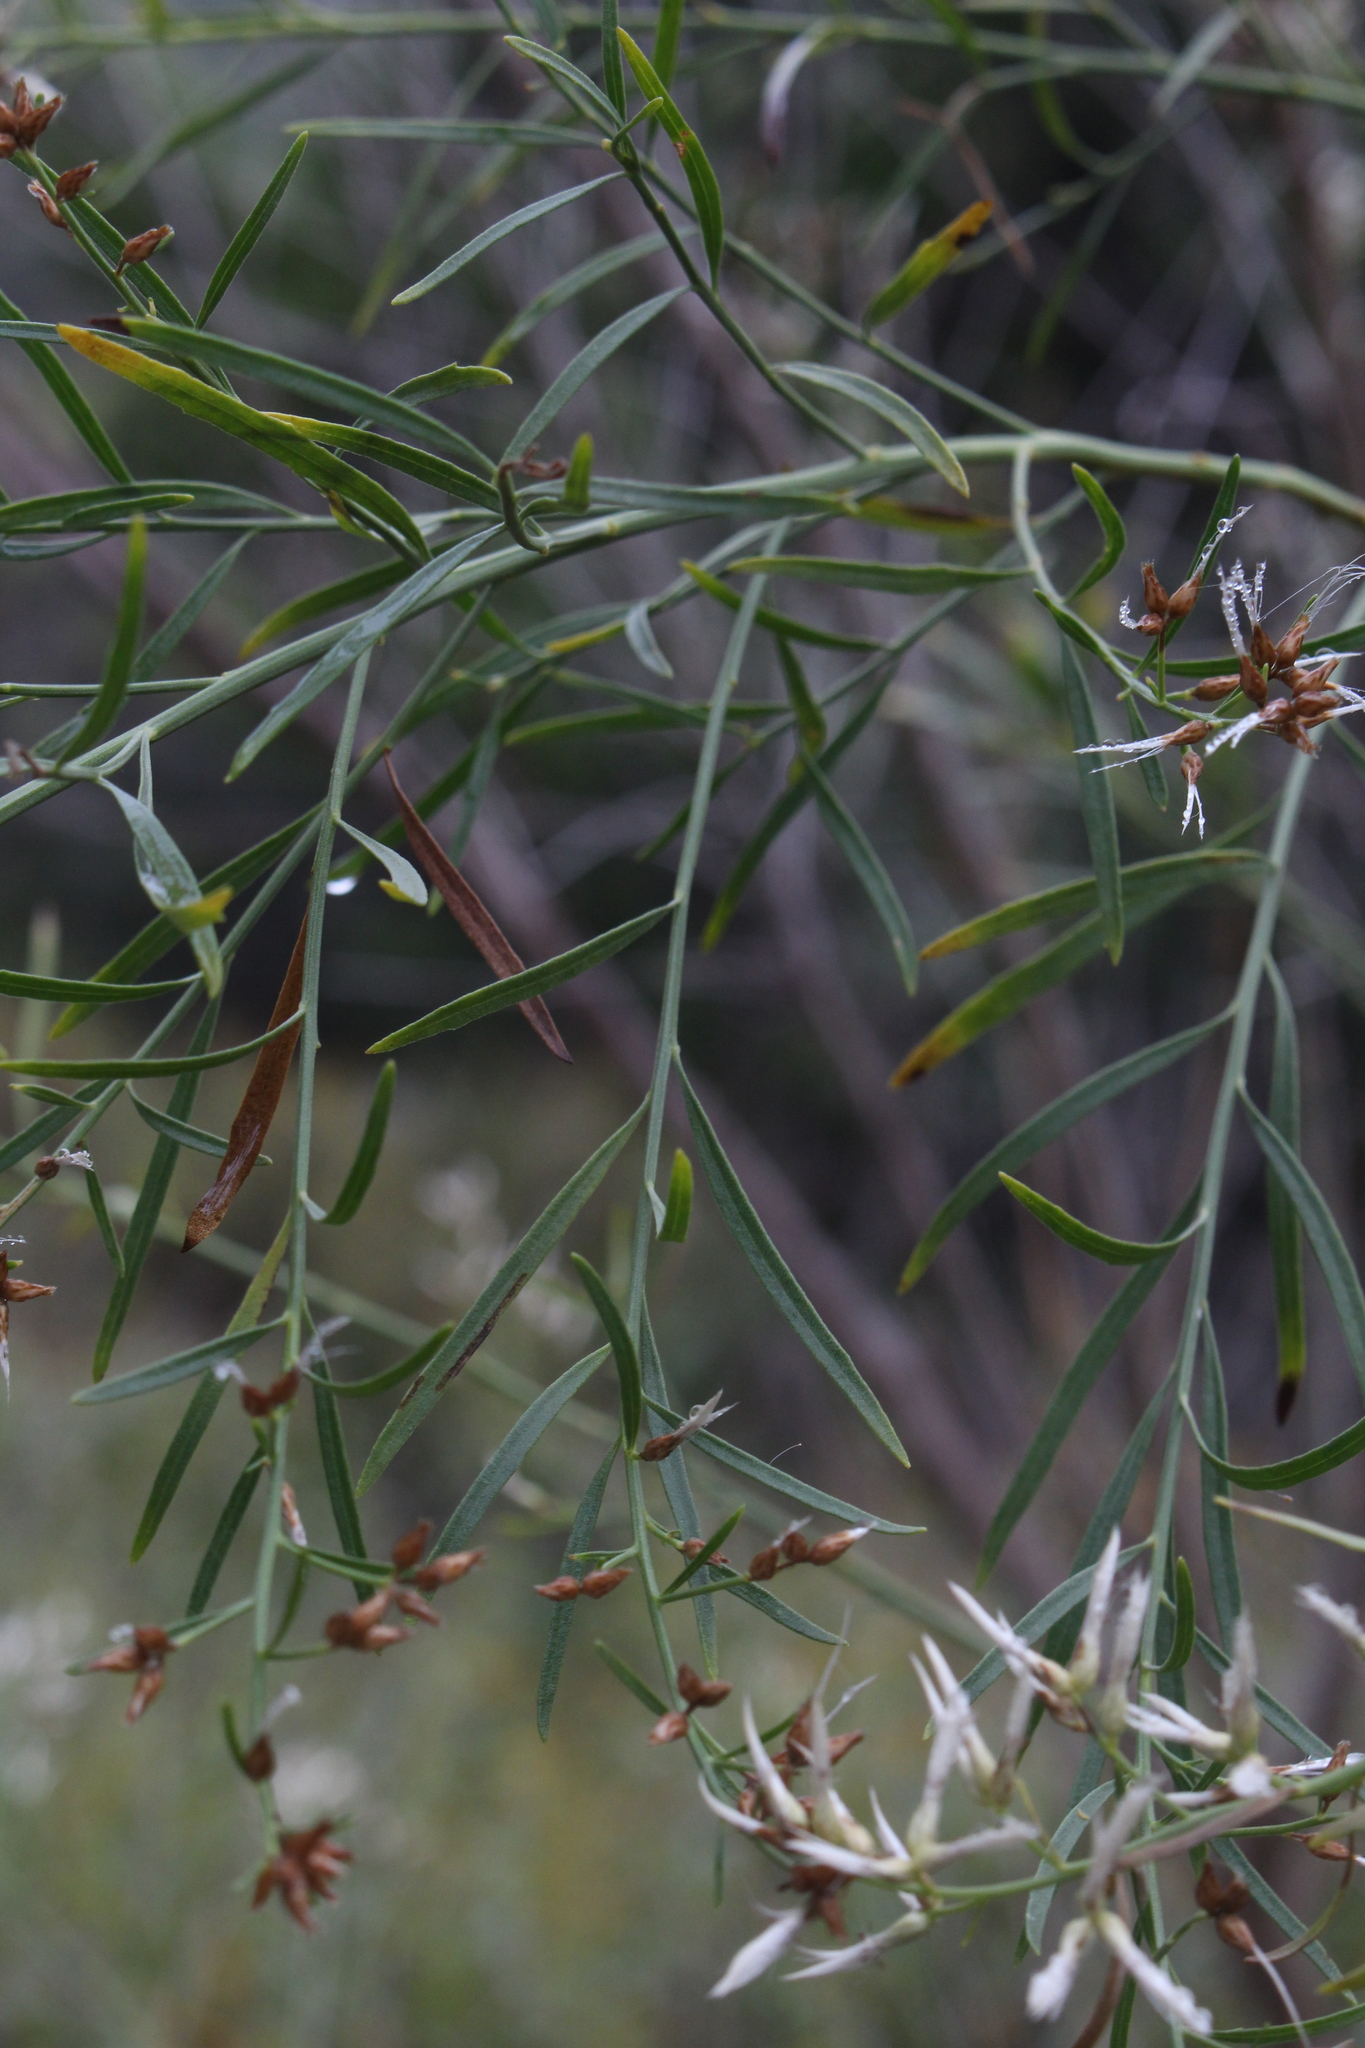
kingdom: Plantae
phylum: Tracheophyta
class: Magnoliopsida
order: Asterales
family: Asteraceae
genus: Baccharis
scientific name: Baccharis neglecta
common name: Roosevelt-weed
